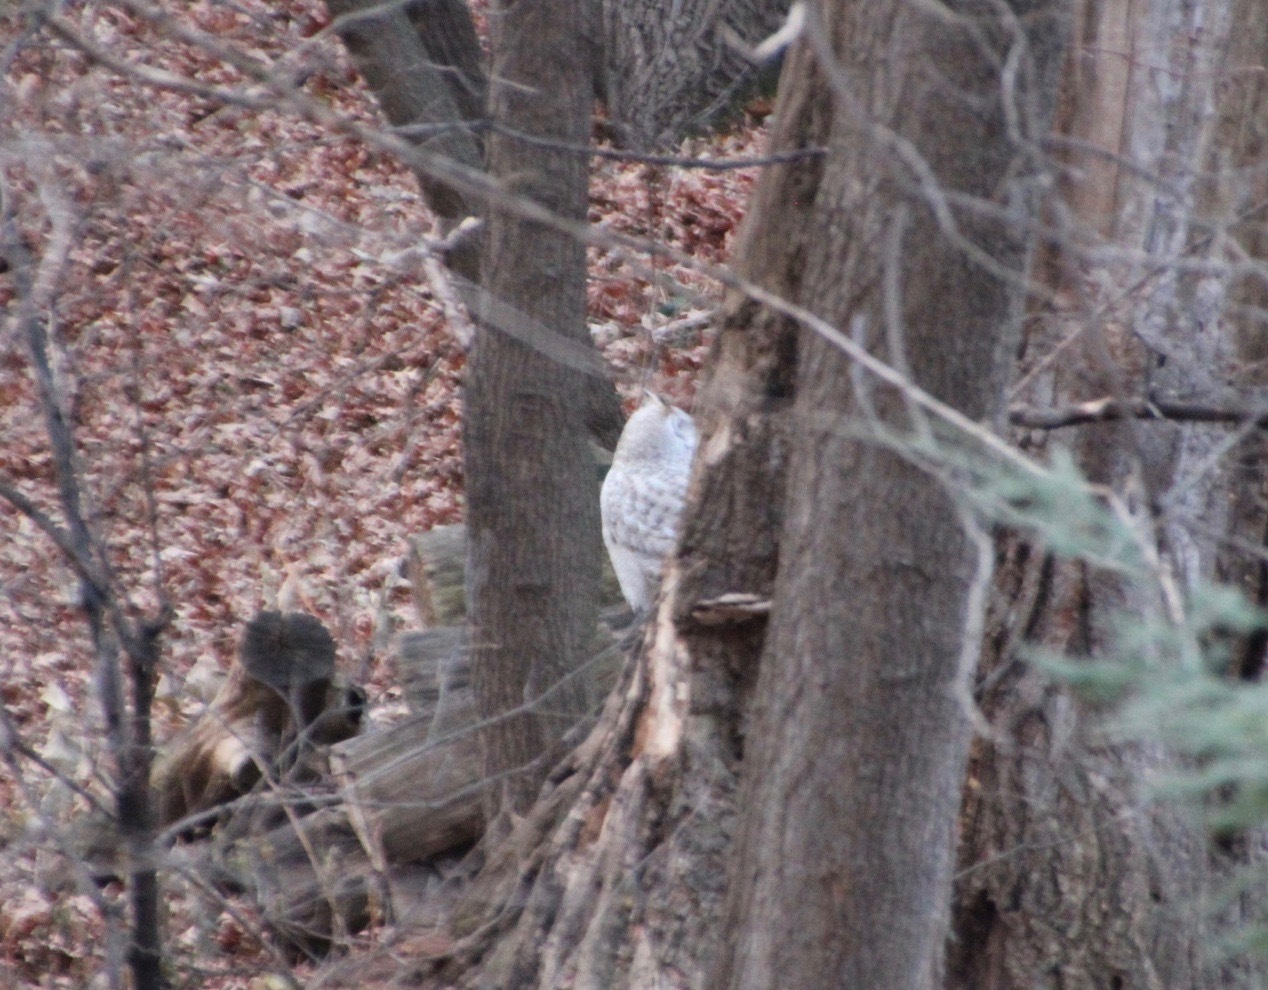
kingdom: Animalia
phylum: Chordata
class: Aves
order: Strigiformes
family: Strigidae
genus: Bubo
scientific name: Bubo virginianus
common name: Great horned owl
